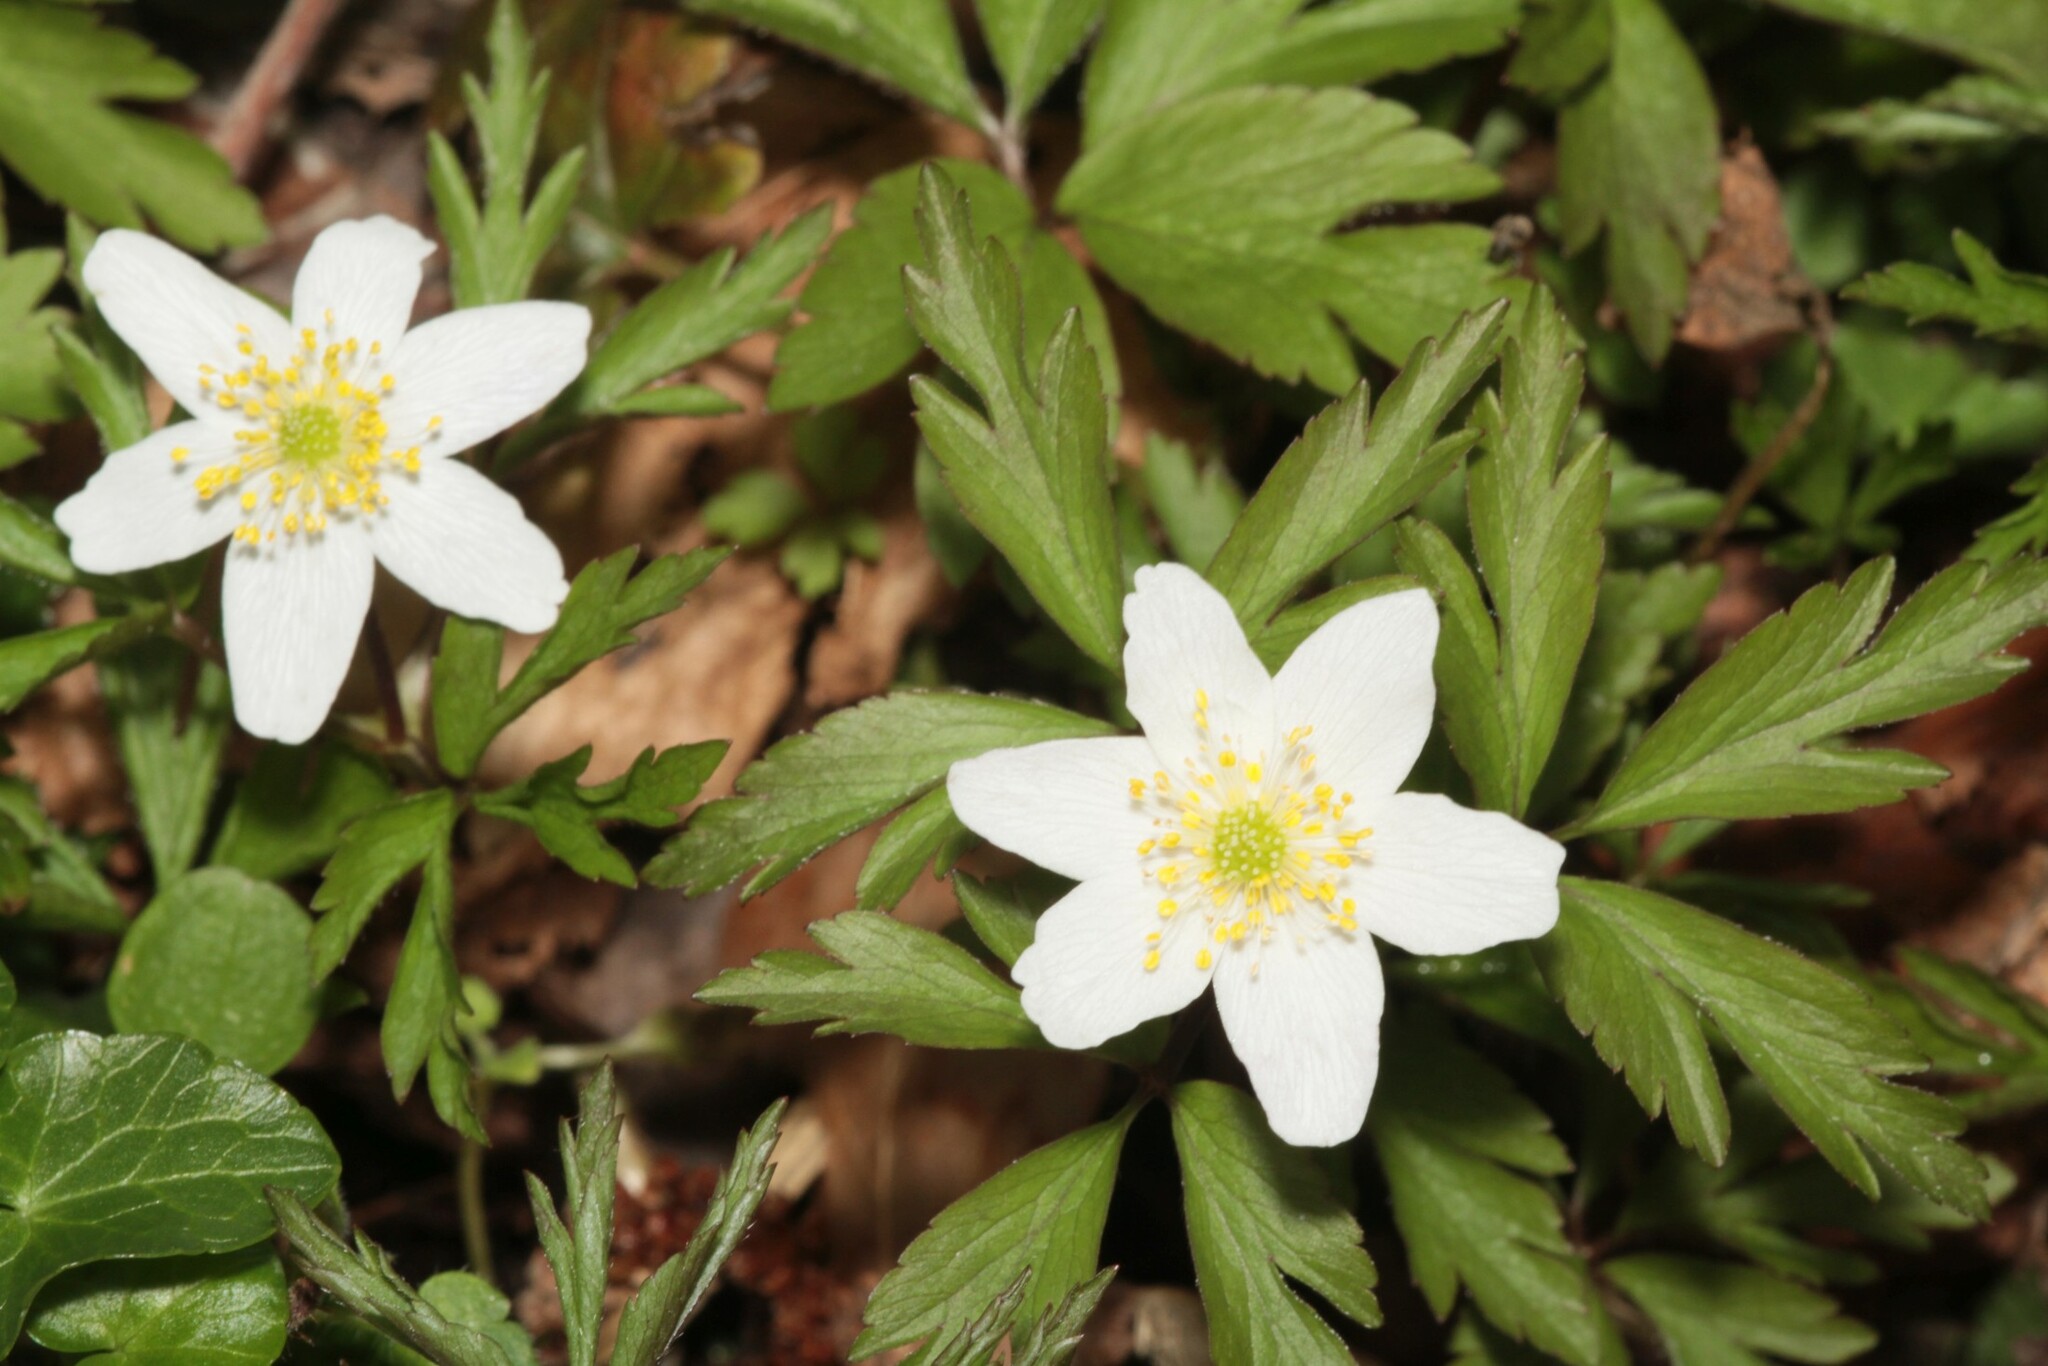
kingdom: Plantae
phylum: Tracheophyta
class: Magnoliopsida
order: Ranunculales
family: Ranunculaceae
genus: Anemone
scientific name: Anemone nemorosa
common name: Wood anemone
